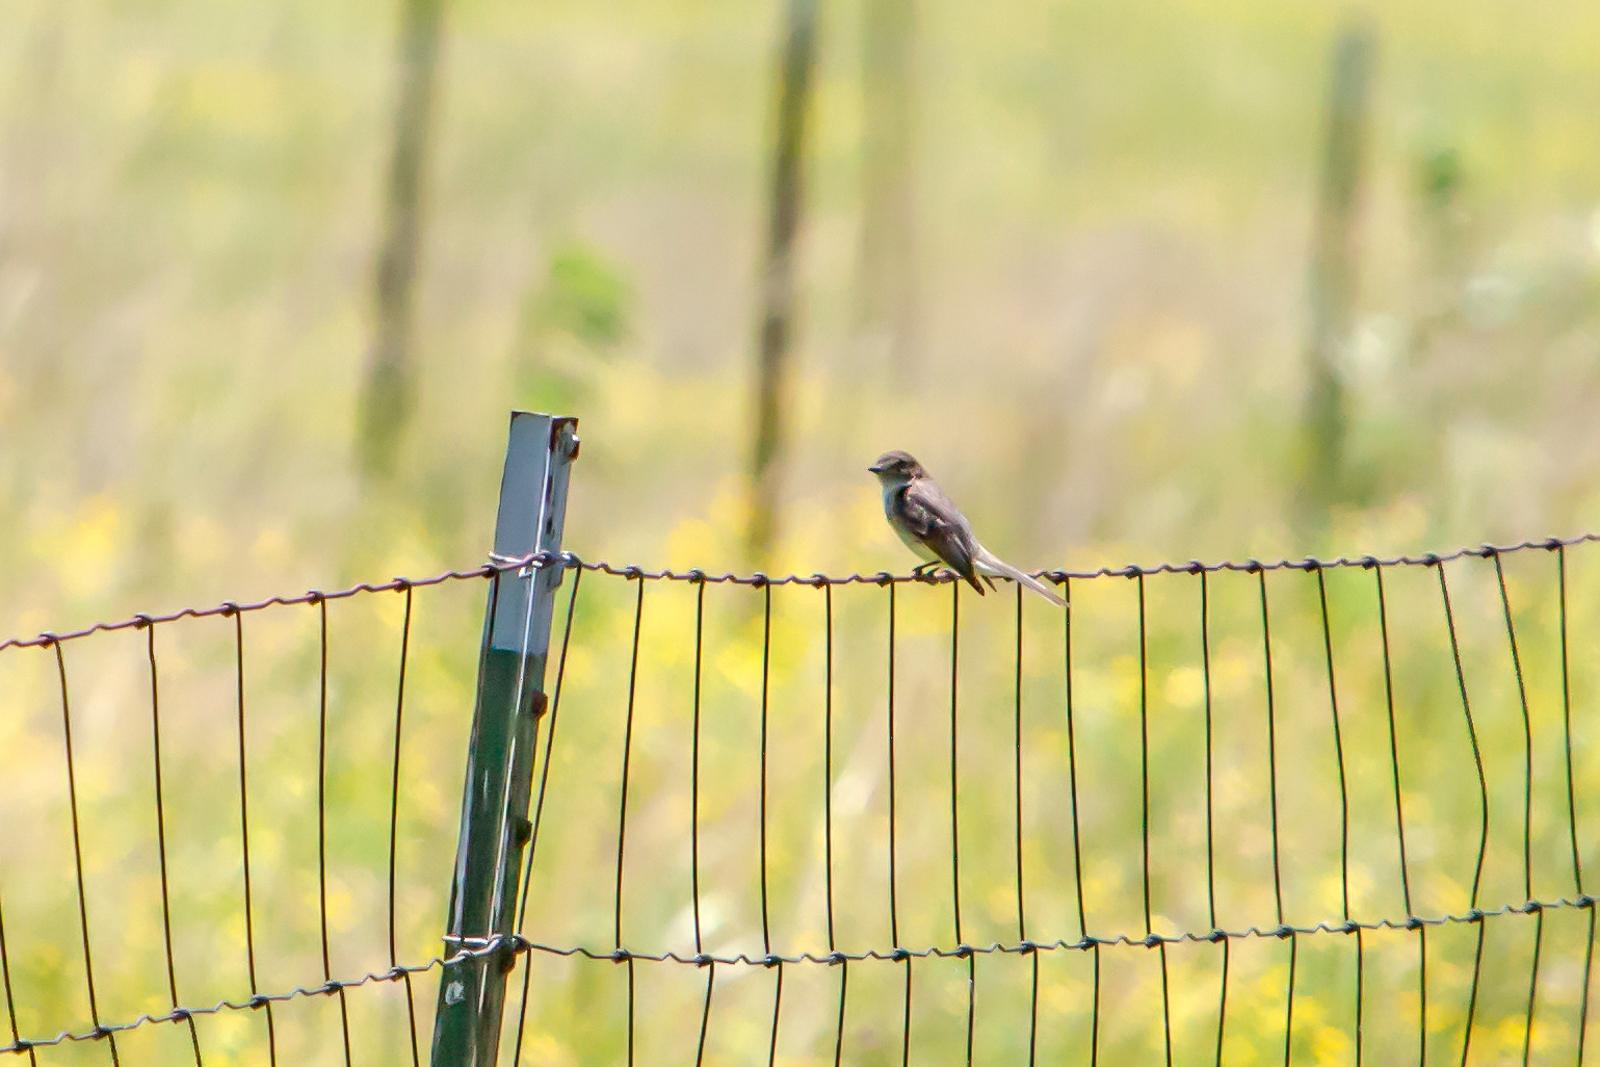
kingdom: Animalia
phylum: Chordata
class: Aves
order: Passeriformes
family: Tyrannidae
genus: Sayornis
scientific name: Sayornis phoebe
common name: Eastern phoebe
